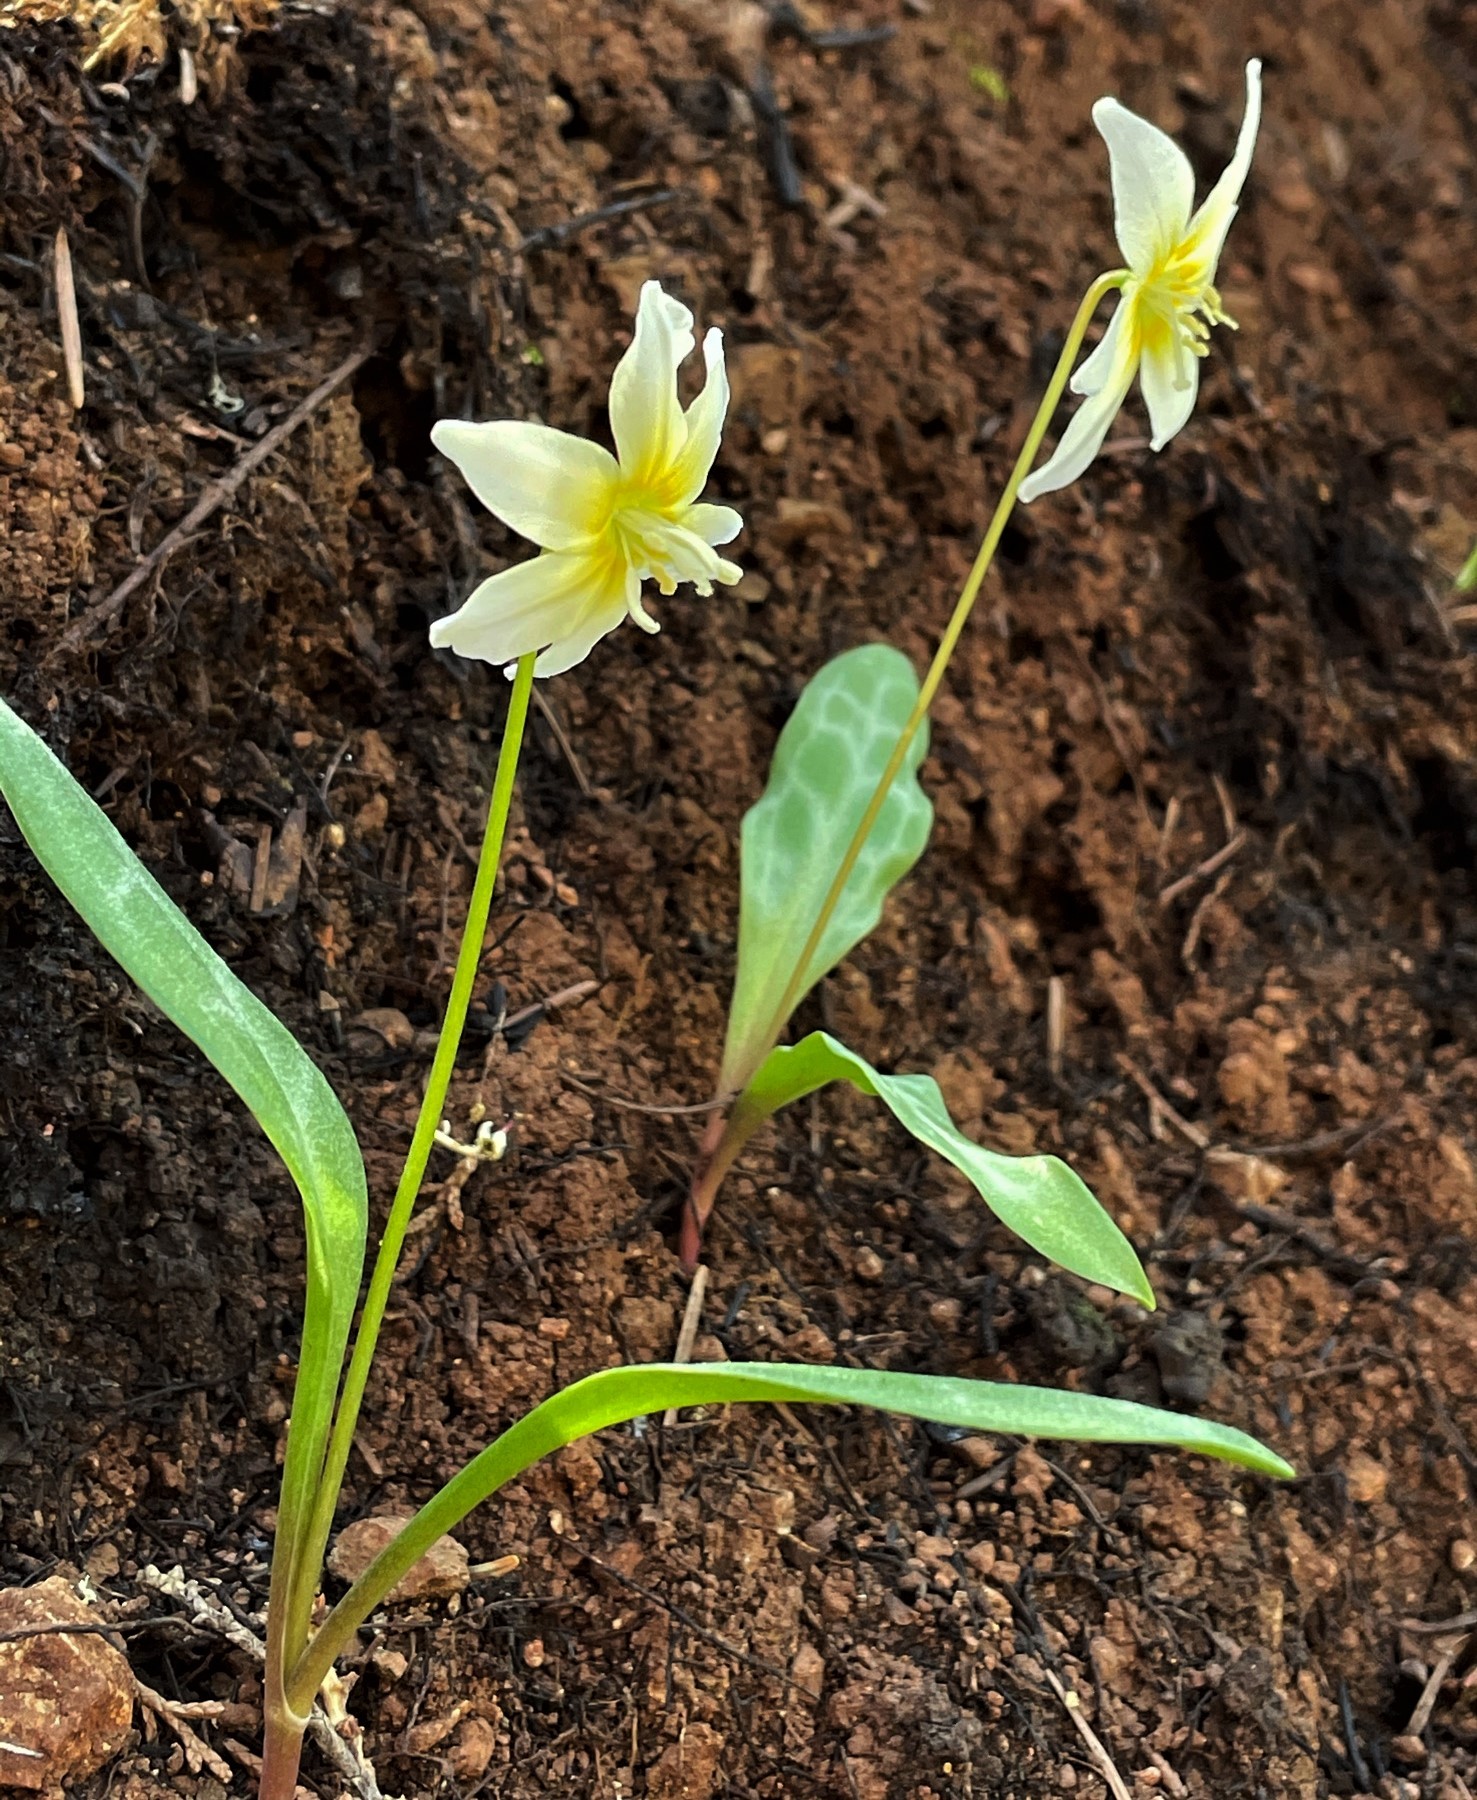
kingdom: Plantae
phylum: Tracheophyta
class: Liliopsida
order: Liliales
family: Liliaceae
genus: Erythronium
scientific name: Erythronium californicum
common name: Fawn-lily
